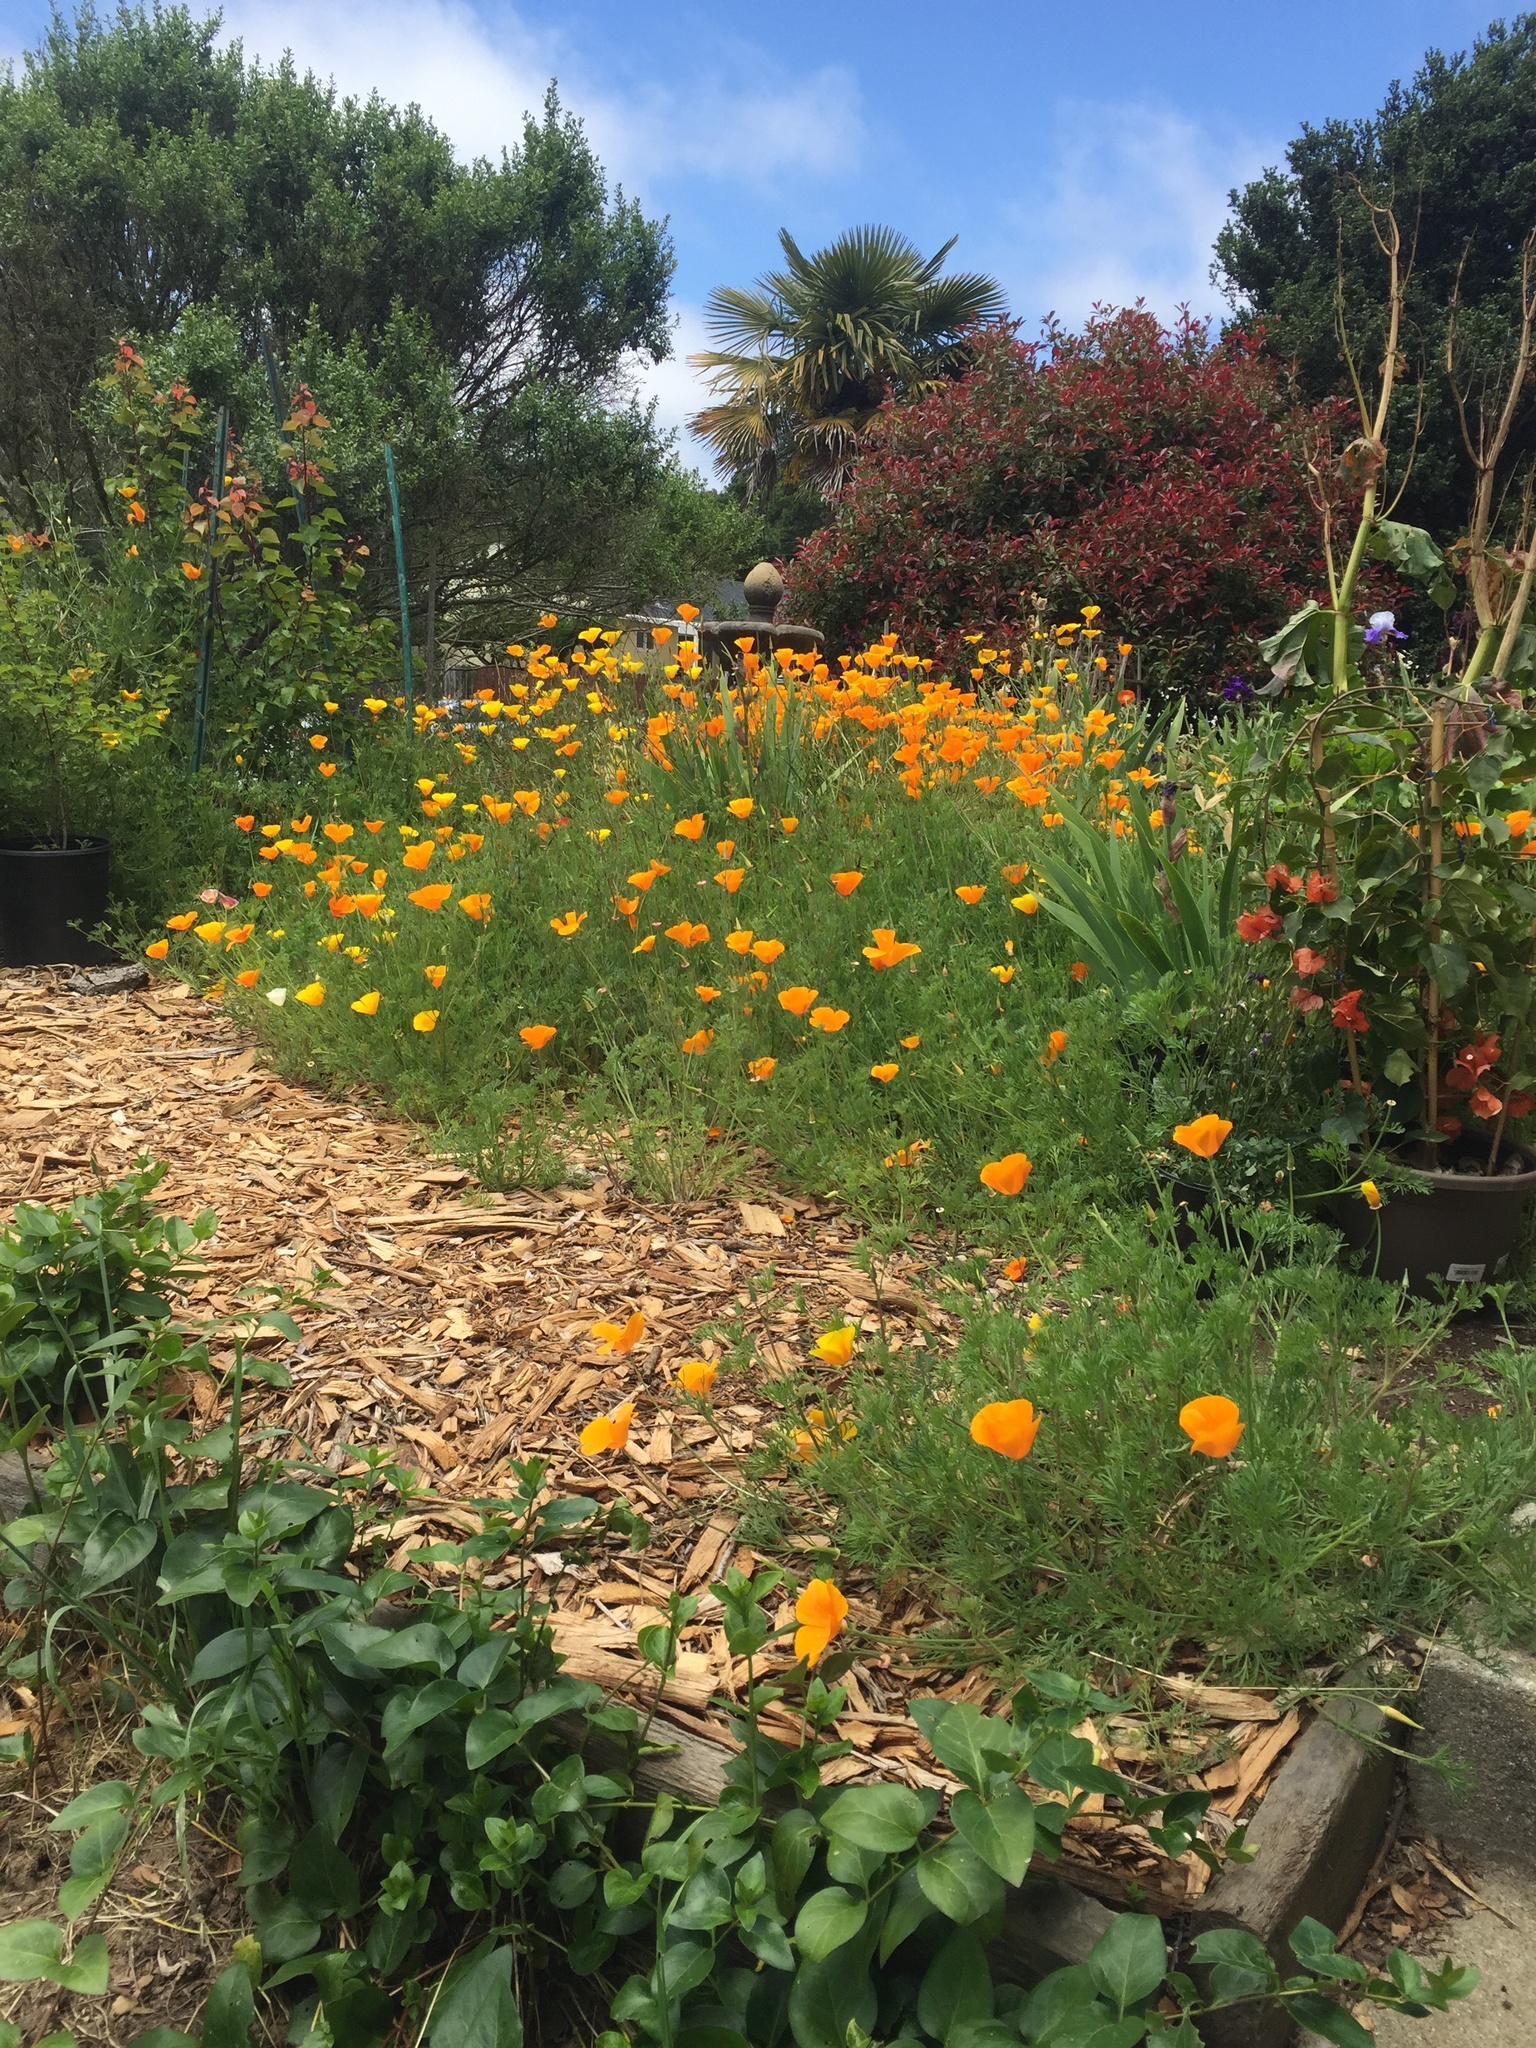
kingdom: Plantae
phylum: Tracheophyta
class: Magnoliopsida
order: Ranunculales
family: Papaveraceae
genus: Eschscholzia
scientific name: Eschscholzia californica
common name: California poppy
